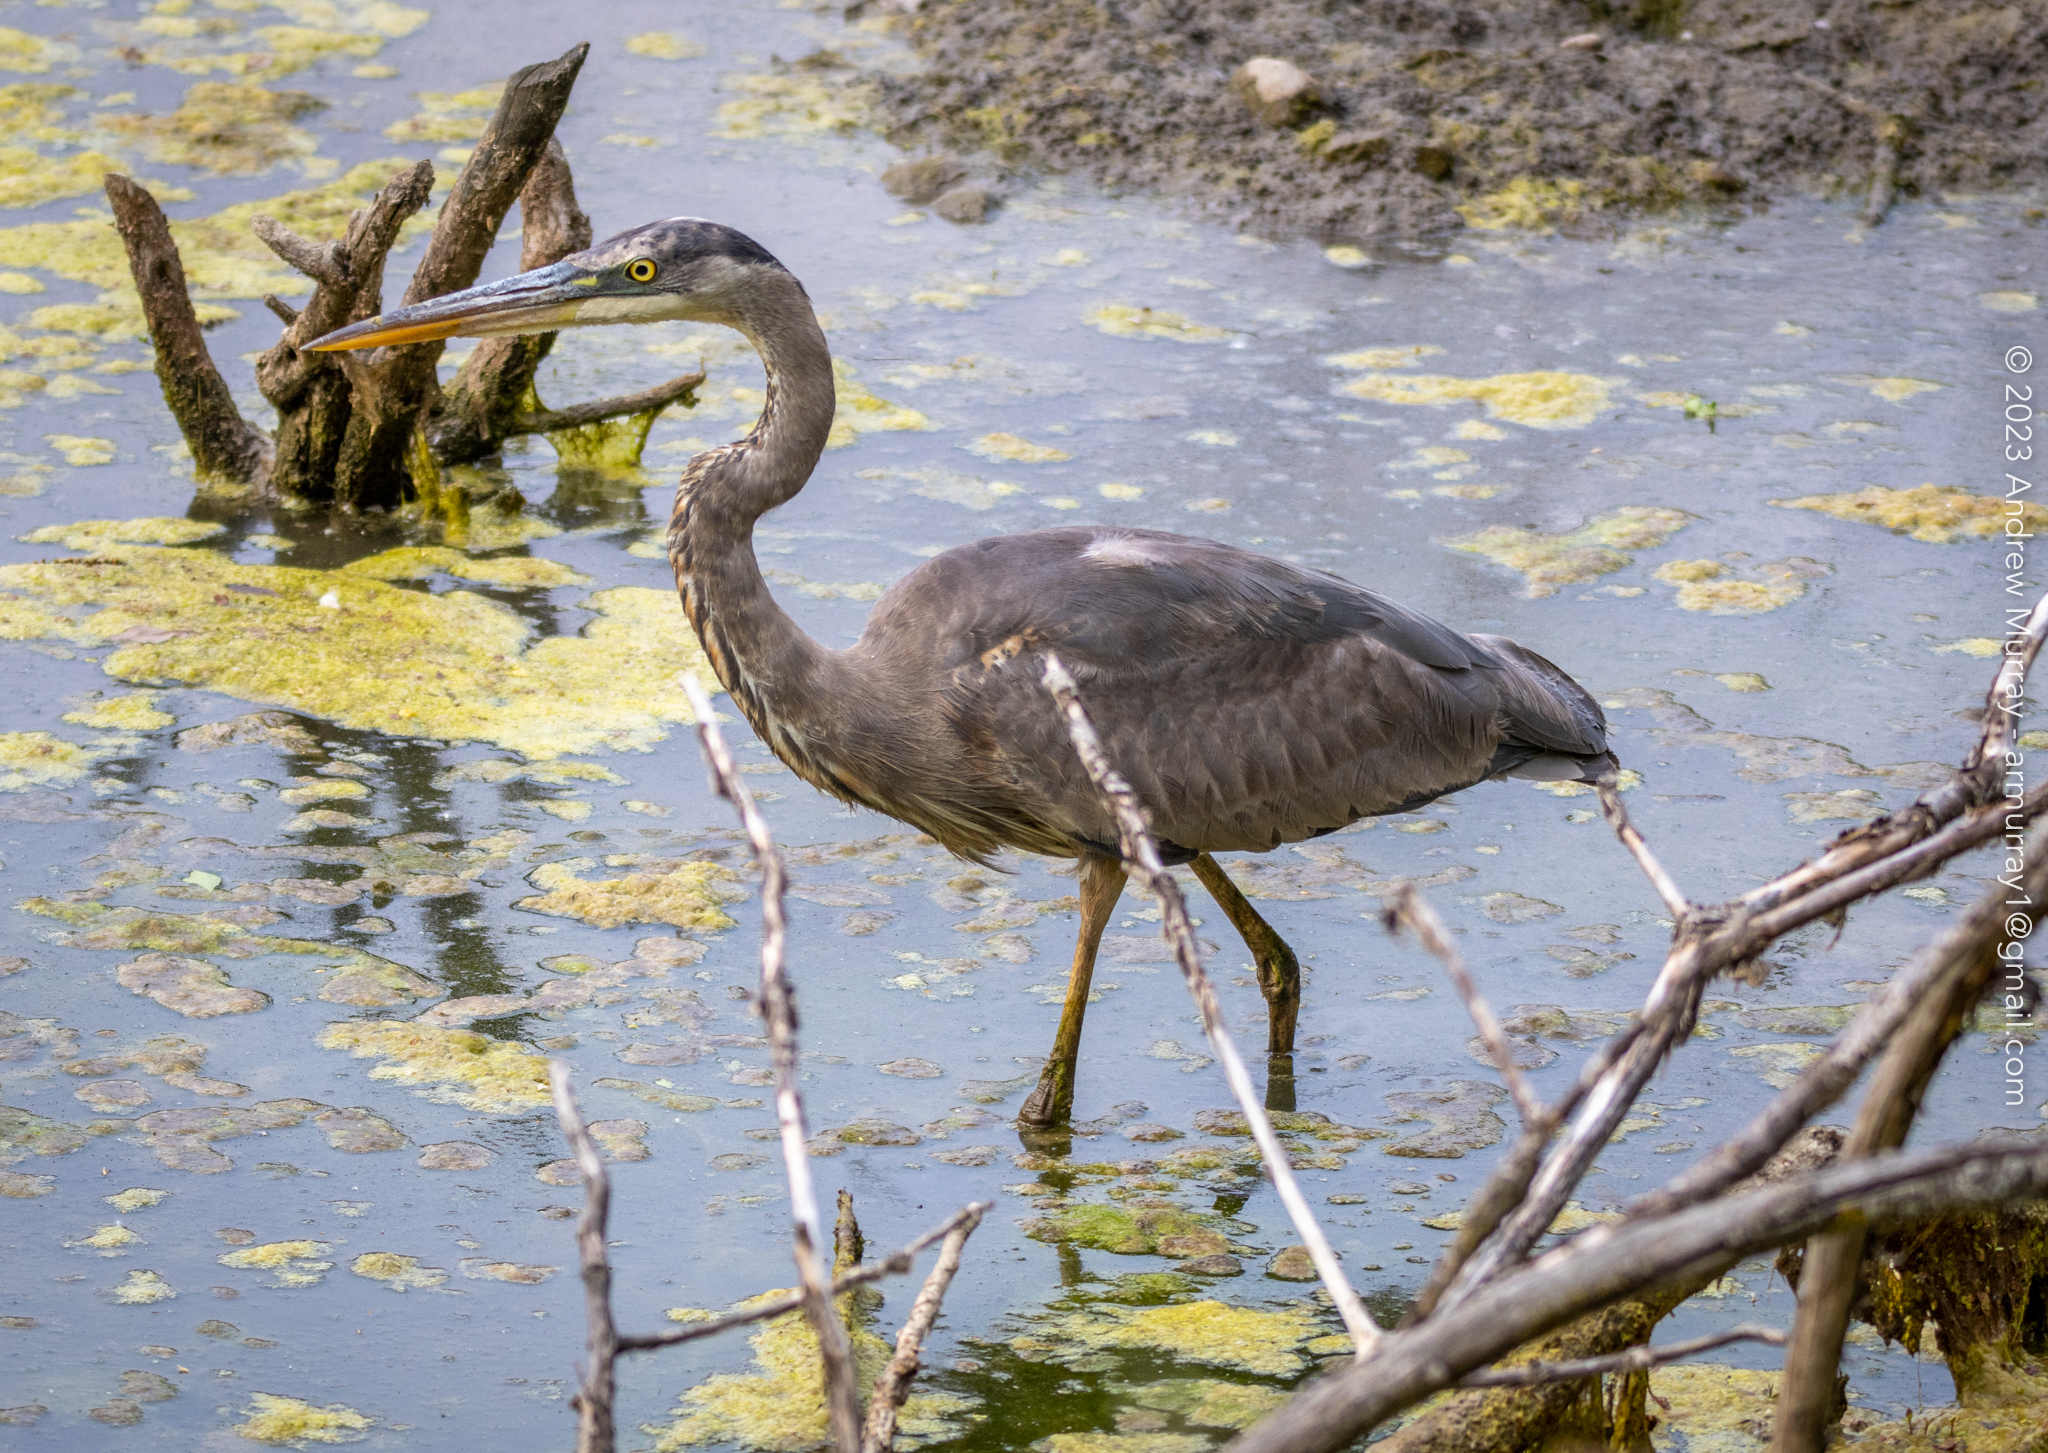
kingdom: Animalia
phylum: Chordata
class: Aves
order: Pelecaniformes
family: Ardeidae
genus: Ardea
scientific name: Ardea herodias
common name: Great blue heron
